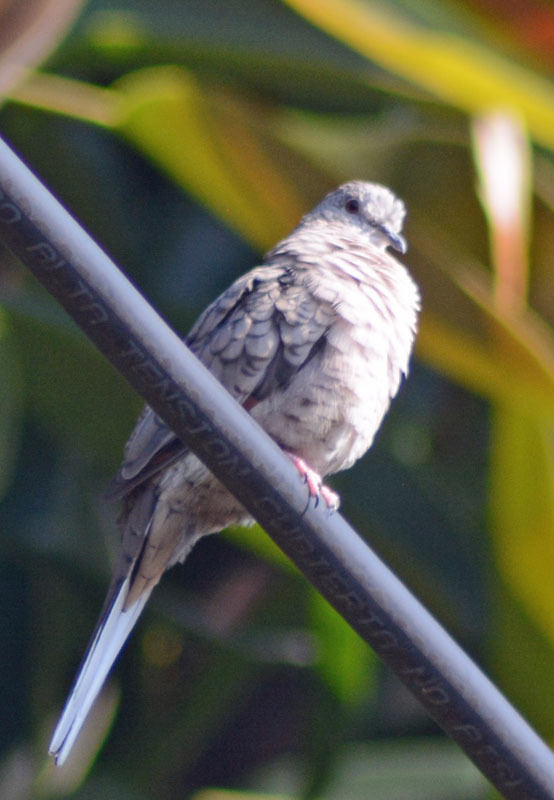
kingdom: Animalia
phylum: Chordata
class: Aves
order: Columbiformes
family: Columbidae
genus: Columbina
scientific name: Columbina inca
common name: Inca dove
